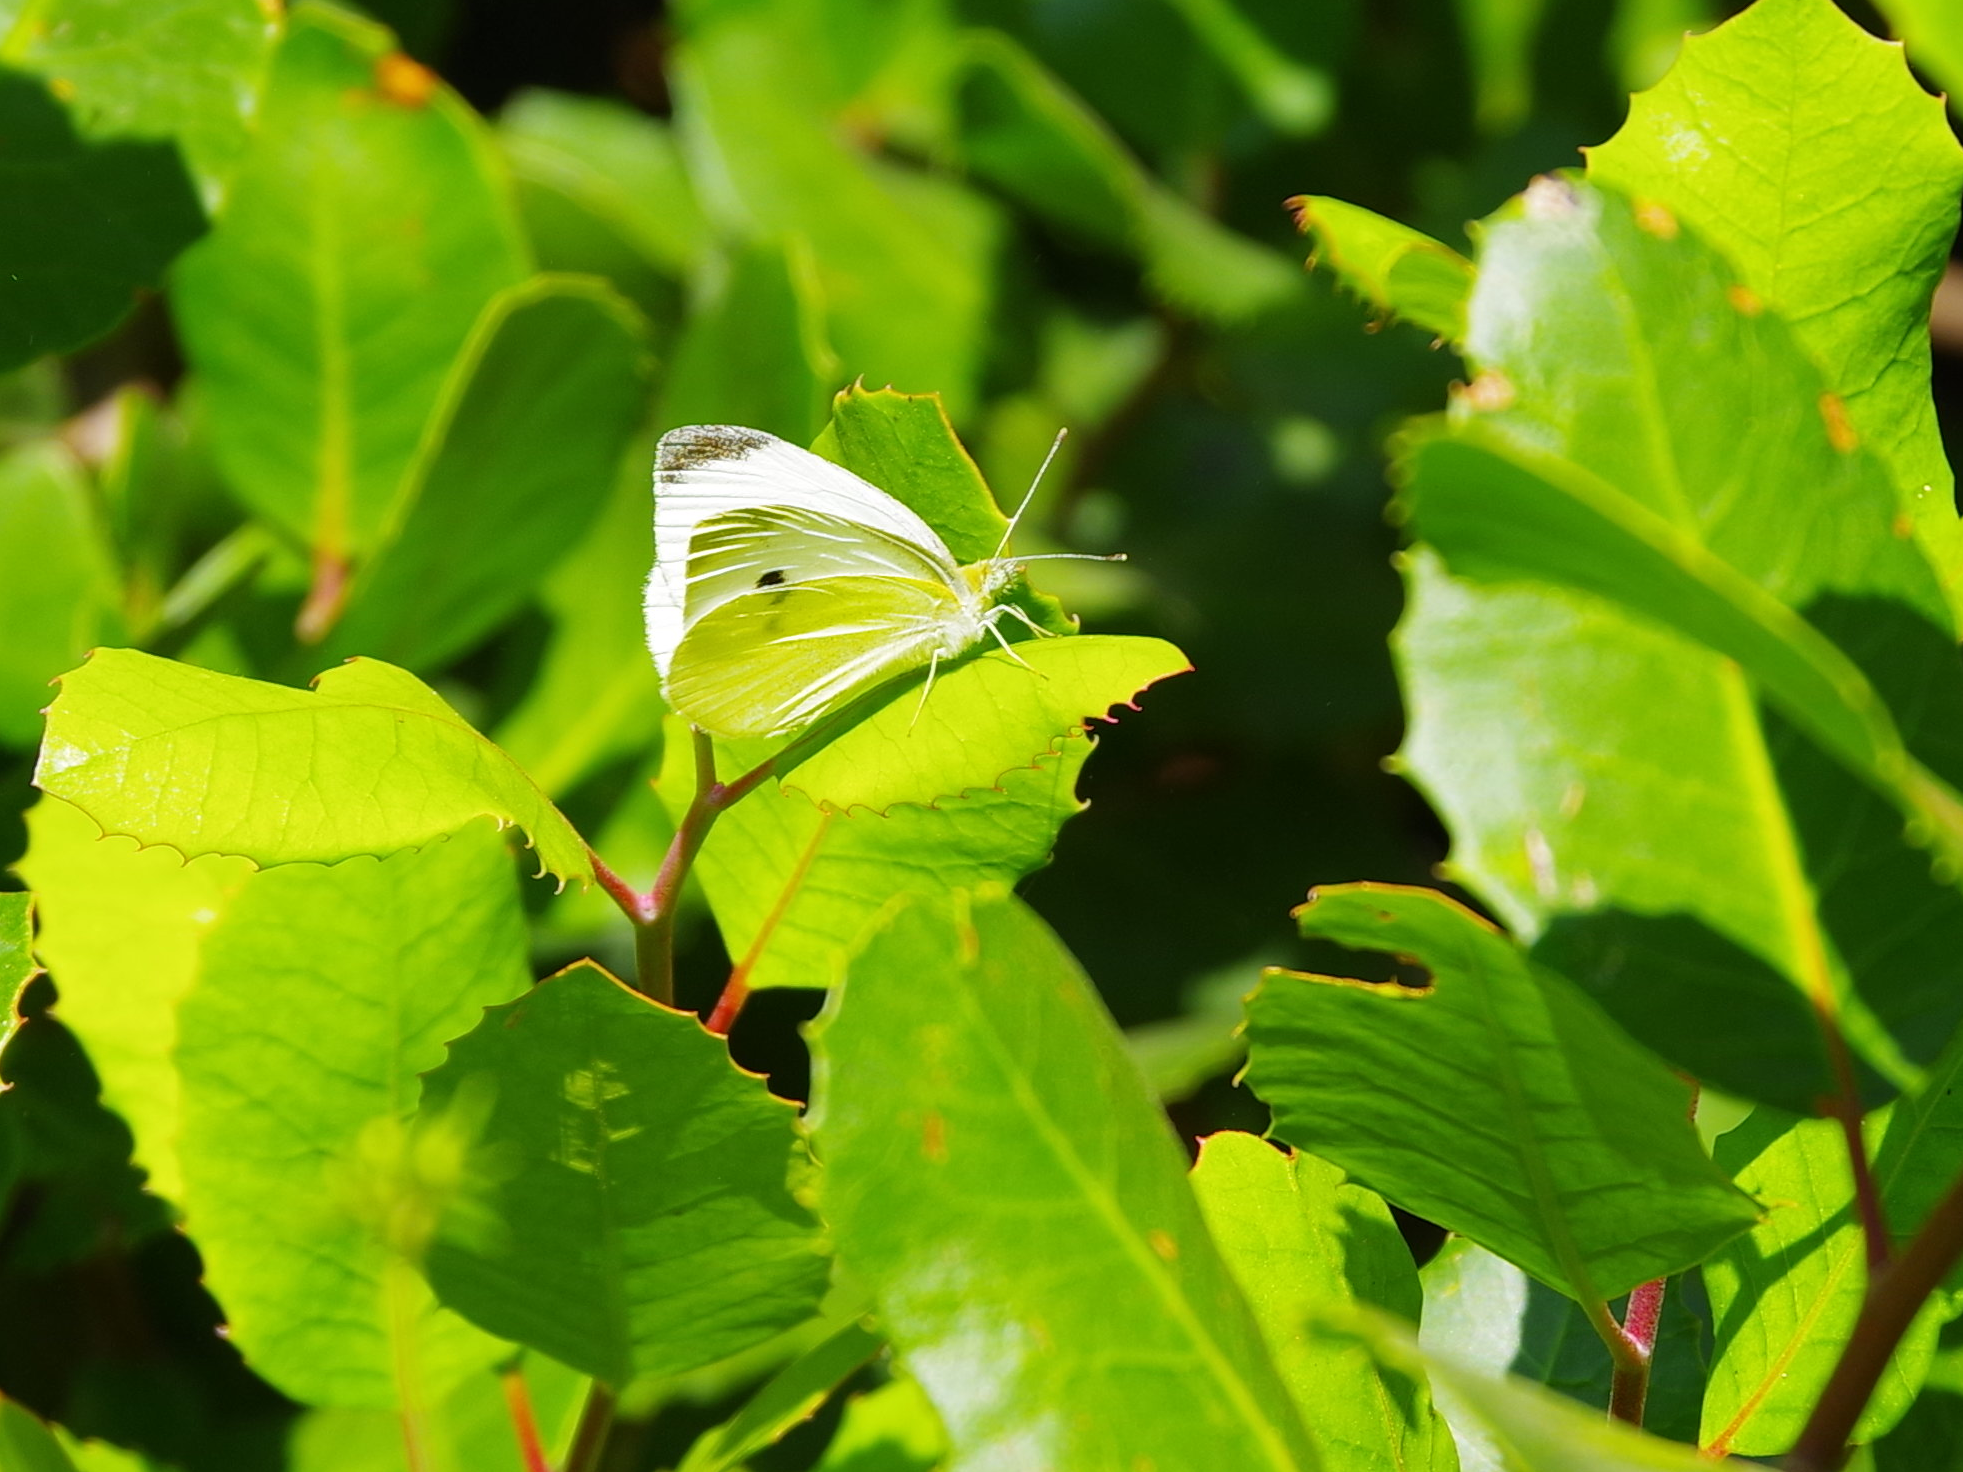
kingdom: Animalia
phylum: Arthropoda
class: Insecta
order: Lepidoptera
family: Pieridae
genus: Pieris
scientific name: Pieris rapae
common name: Small white
